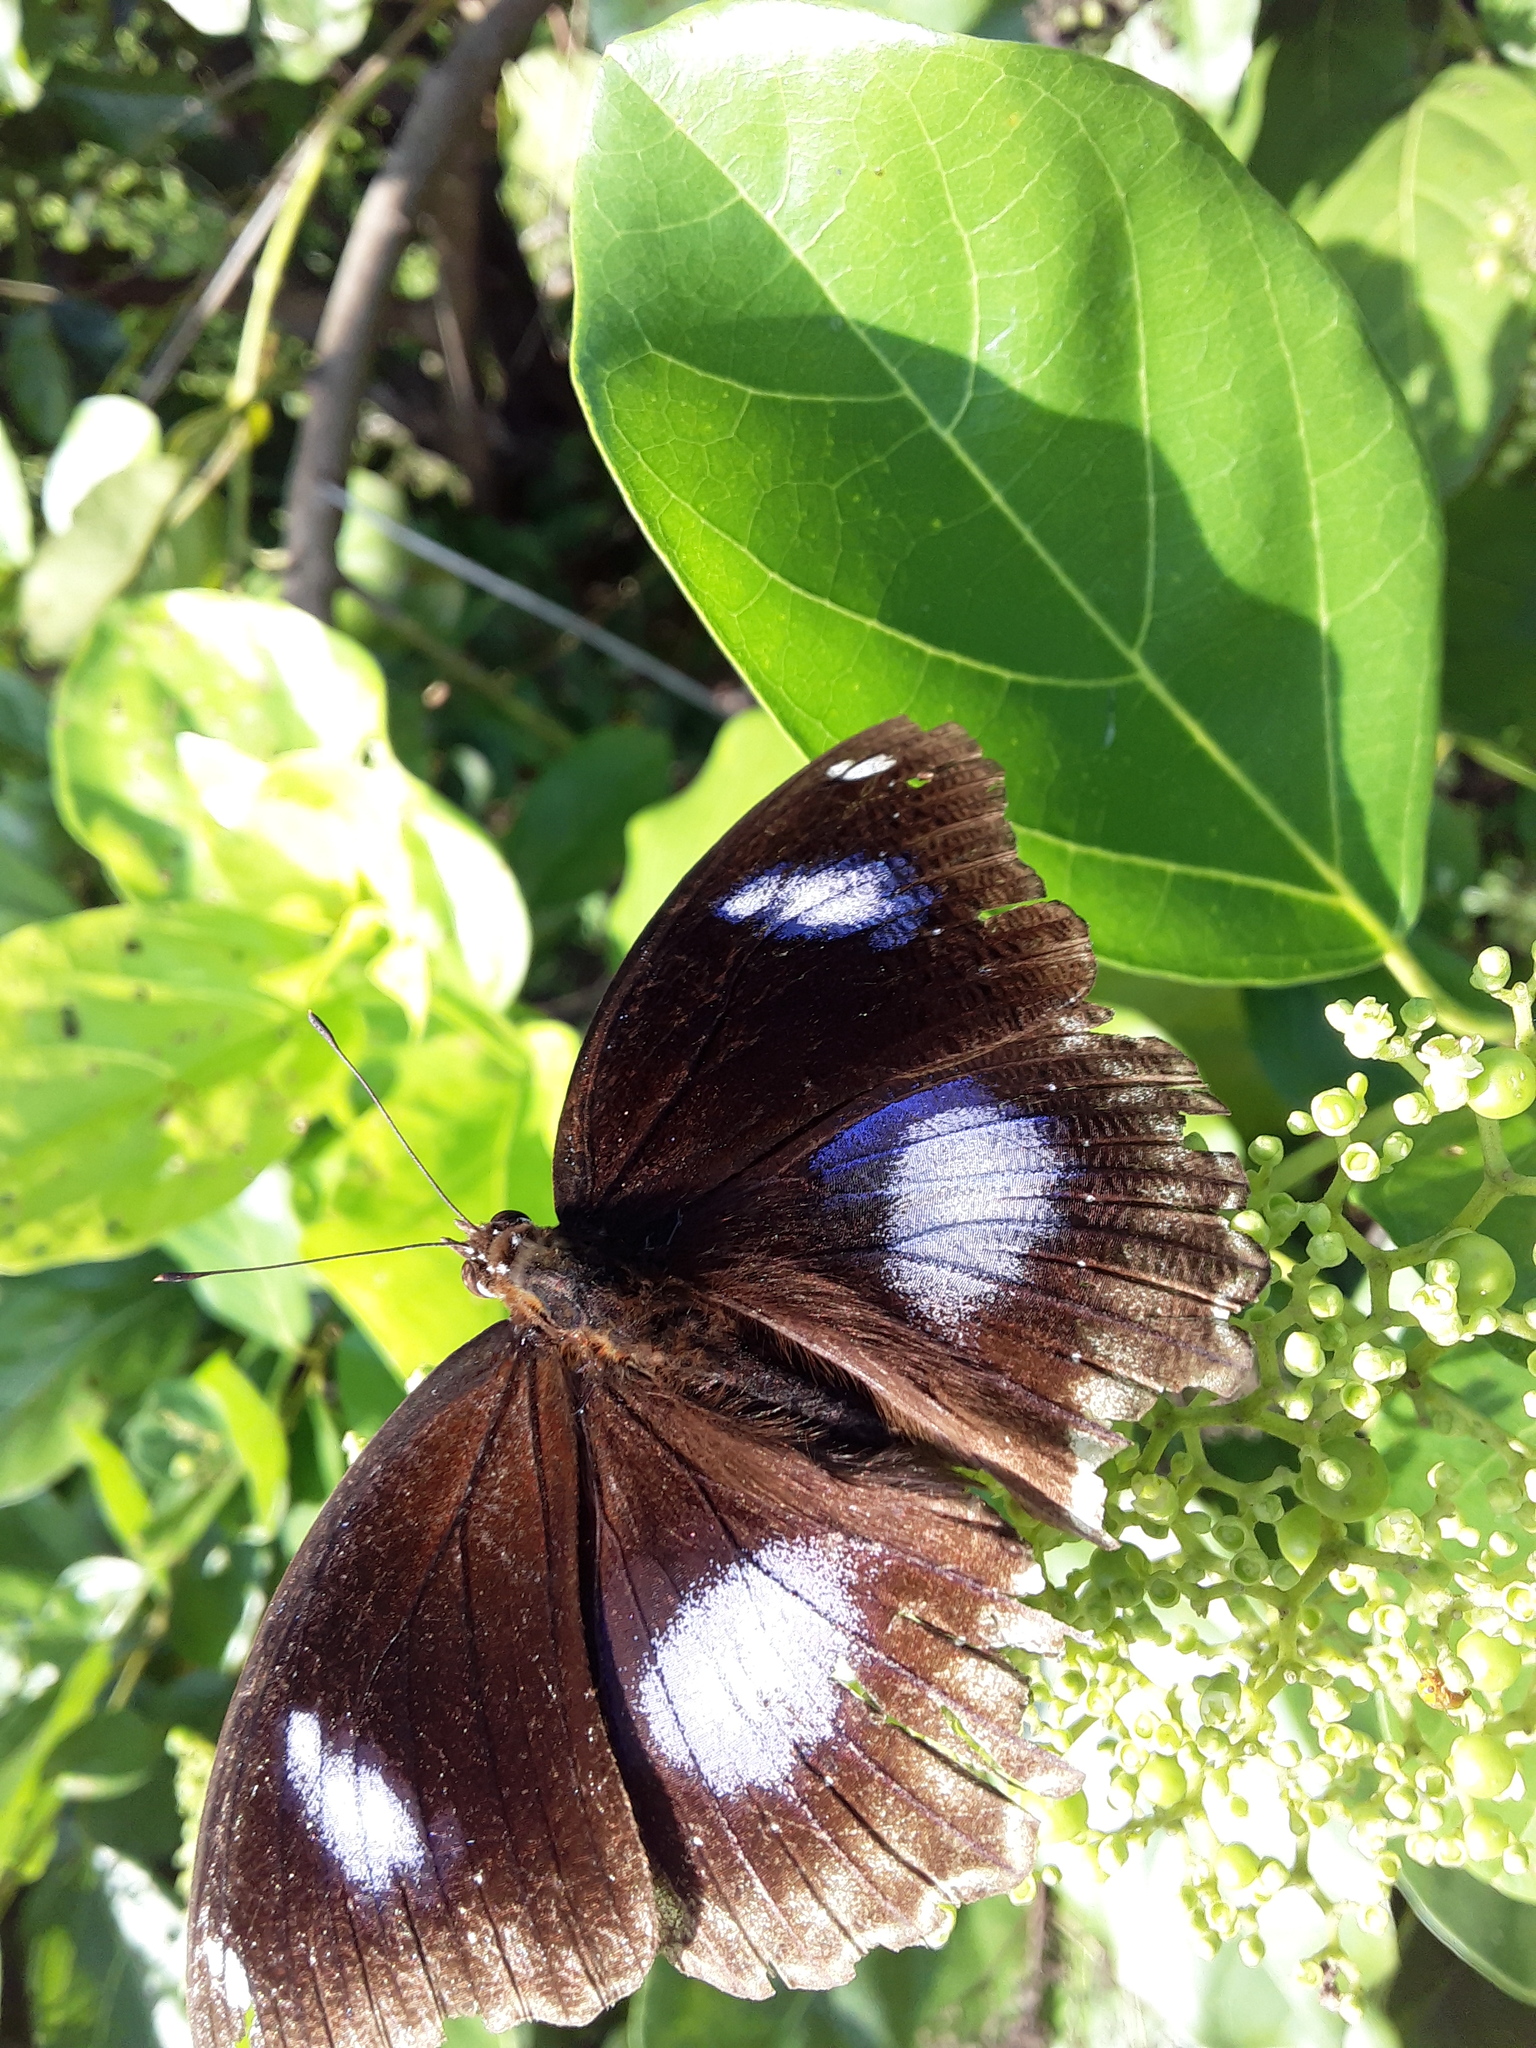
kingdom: Animalia
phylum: Arthropoda
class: Insecta
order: Lepidoptera
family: Nymphalidae
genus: Hypolimnas
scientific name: Hypolimnas bolina
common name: Great eggfly
